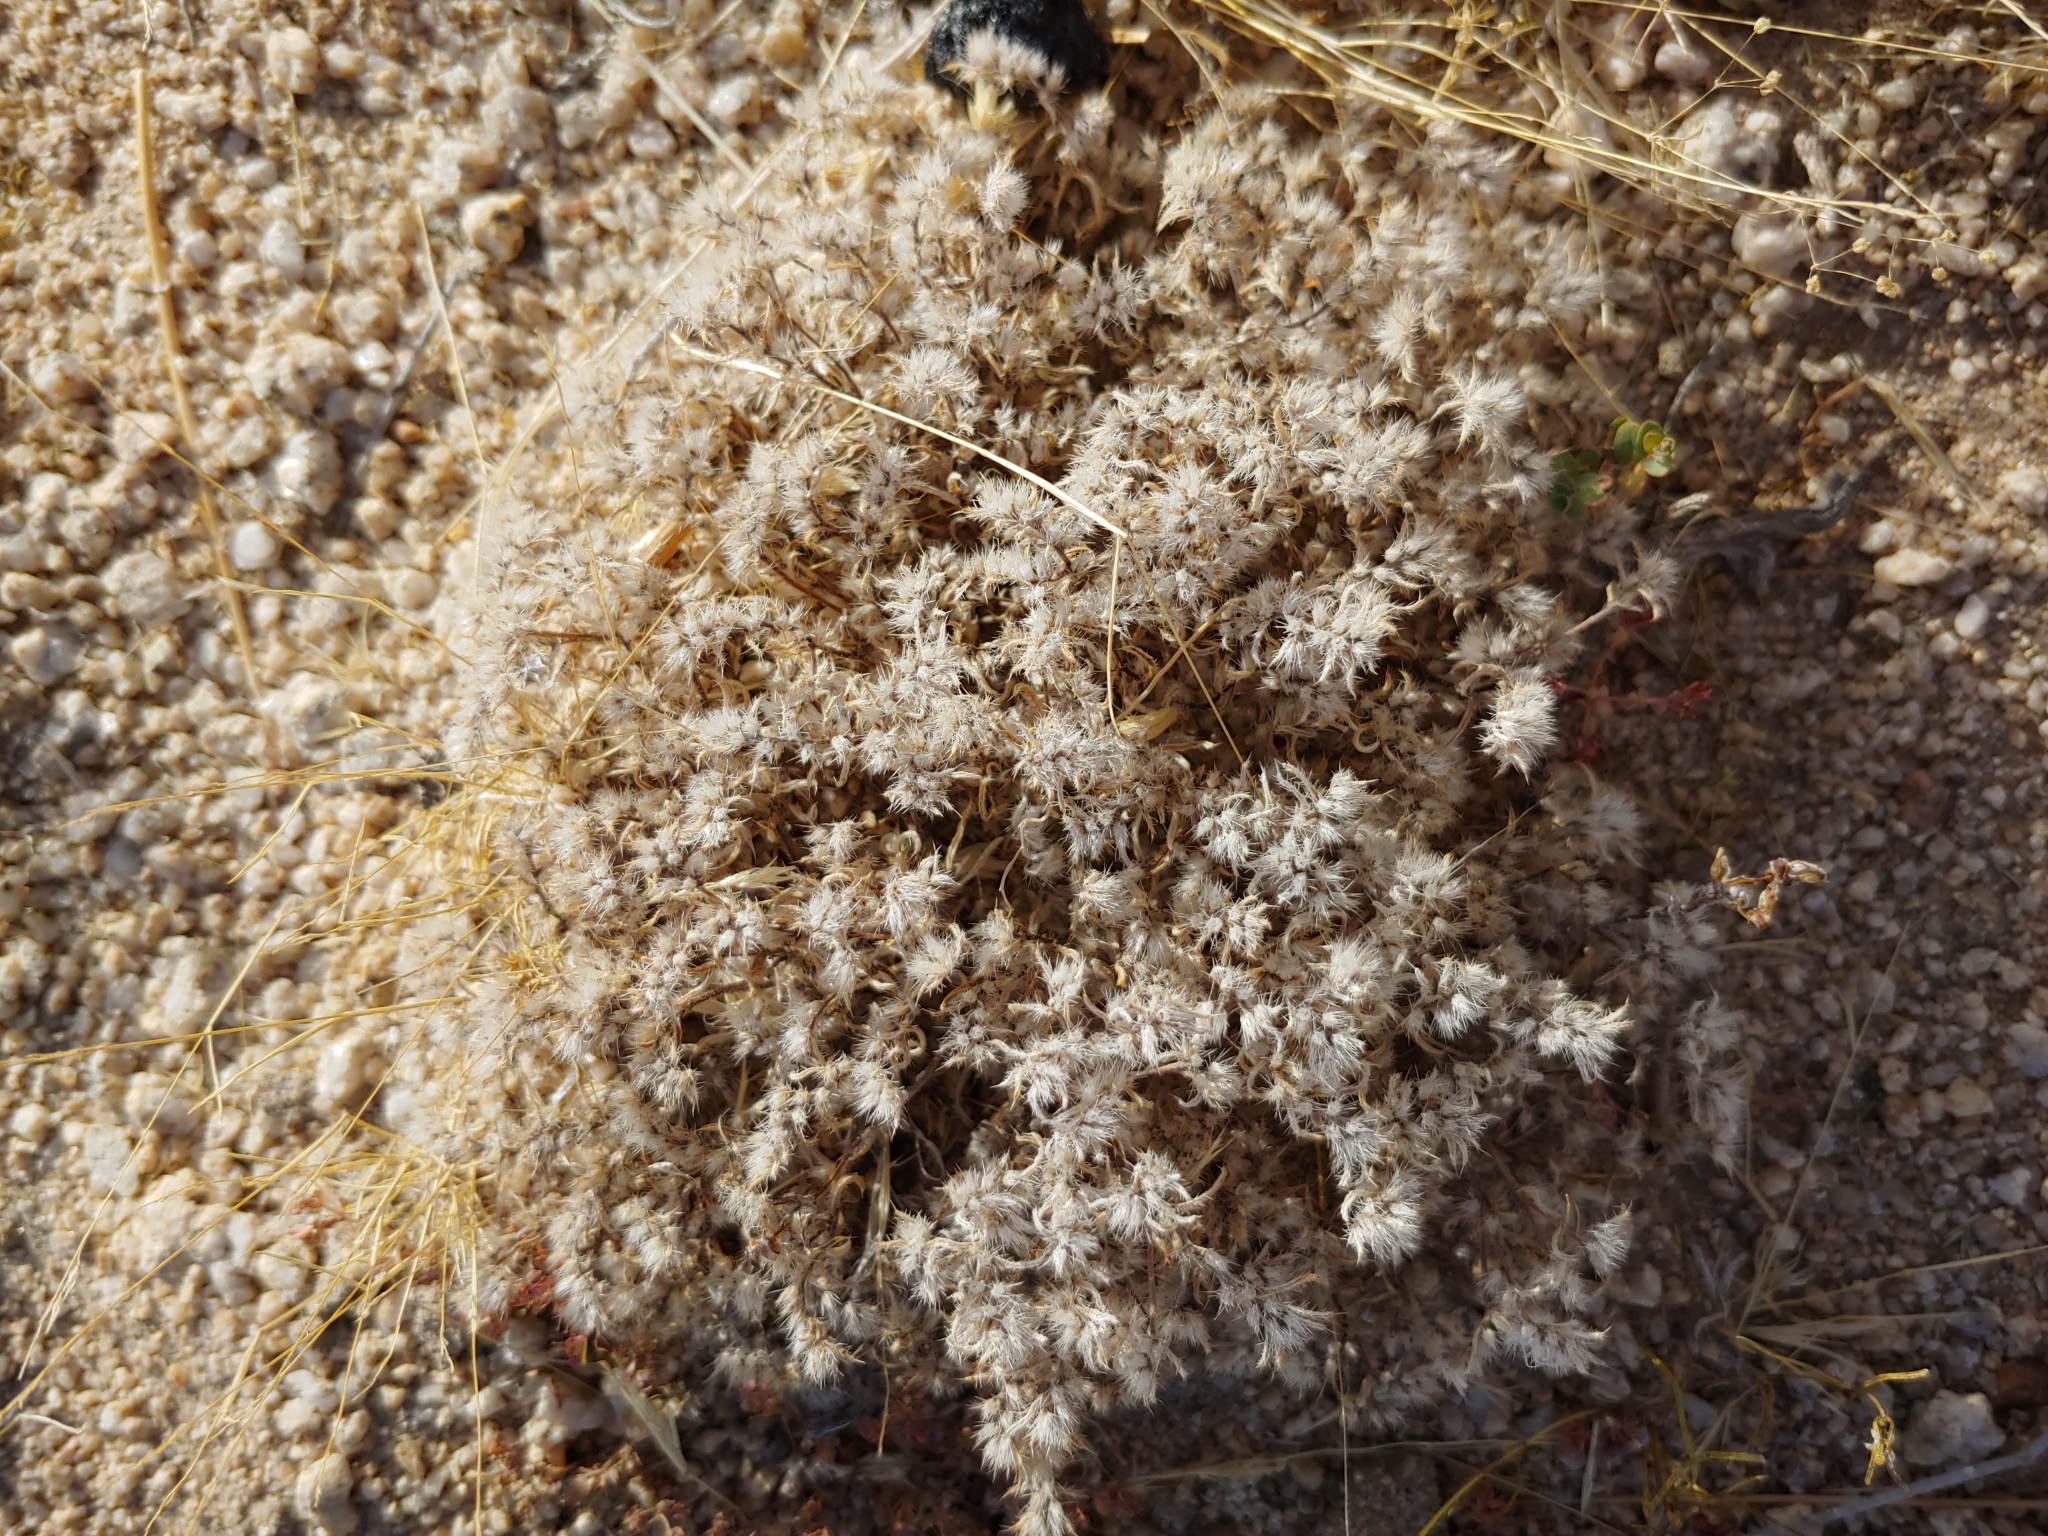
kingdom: Plantae
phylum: Tracheophyta
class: Magnoliopsida
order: Boraginales
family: Boraginaceae
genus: Greeneocharis
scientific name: Greeneocharis circumscissa
